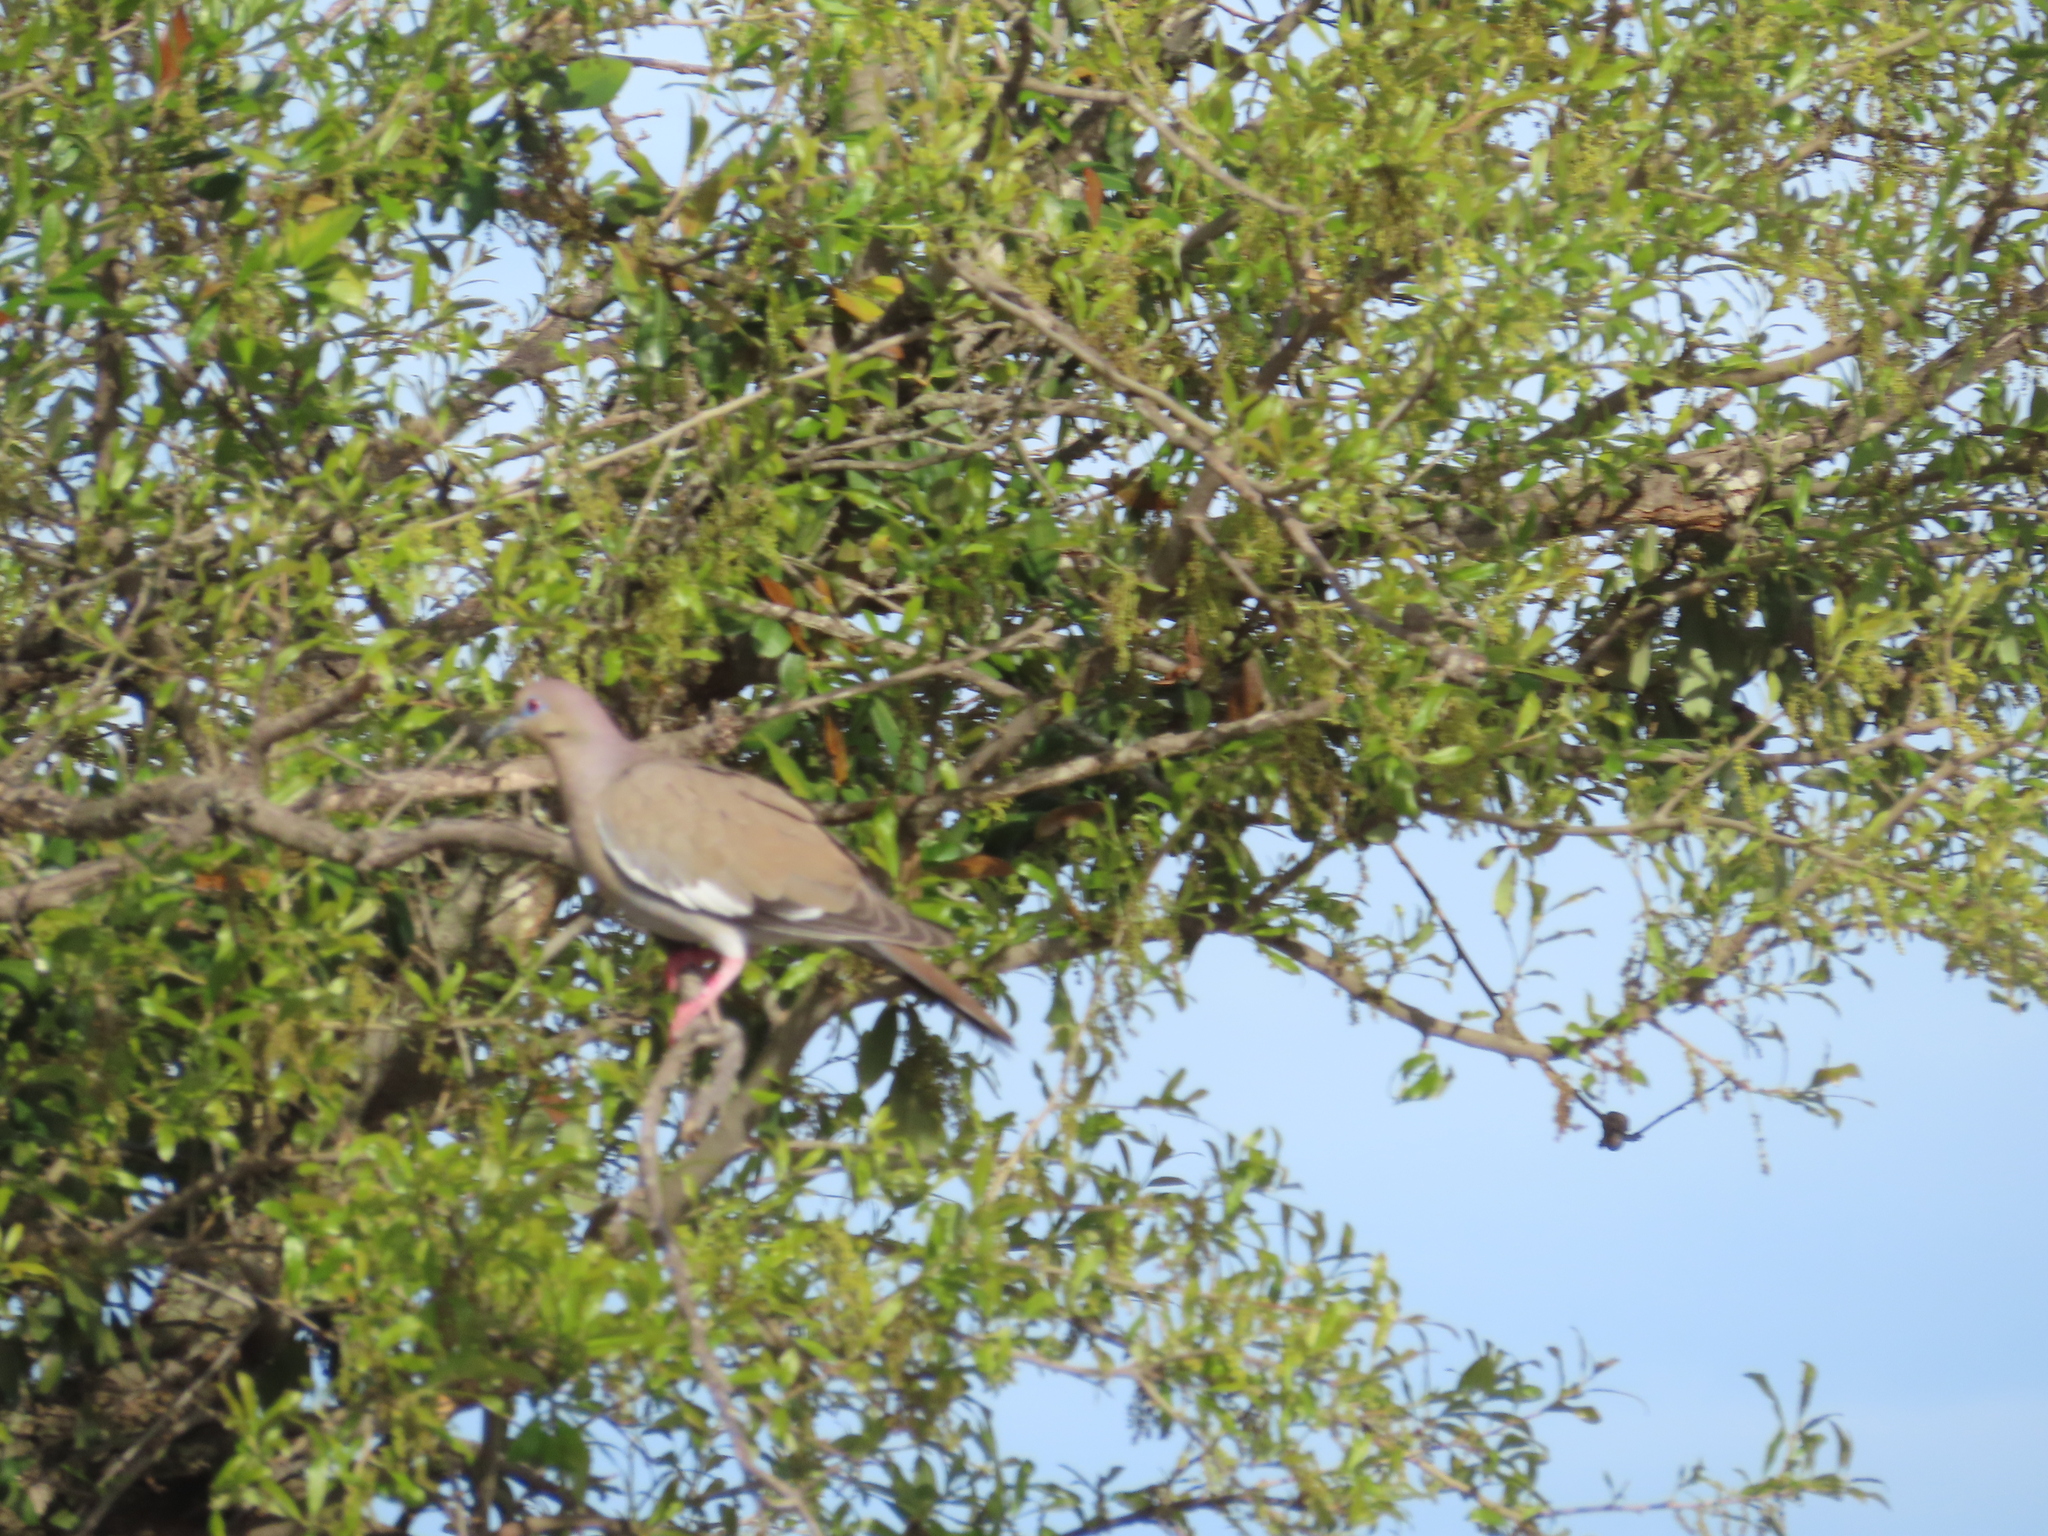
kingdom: Animalia
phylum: Chordata
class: Aves
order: Columbiformes
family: Columbidae
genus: Zenaida
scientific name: Zenaida asiatica
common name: White-winged dove
